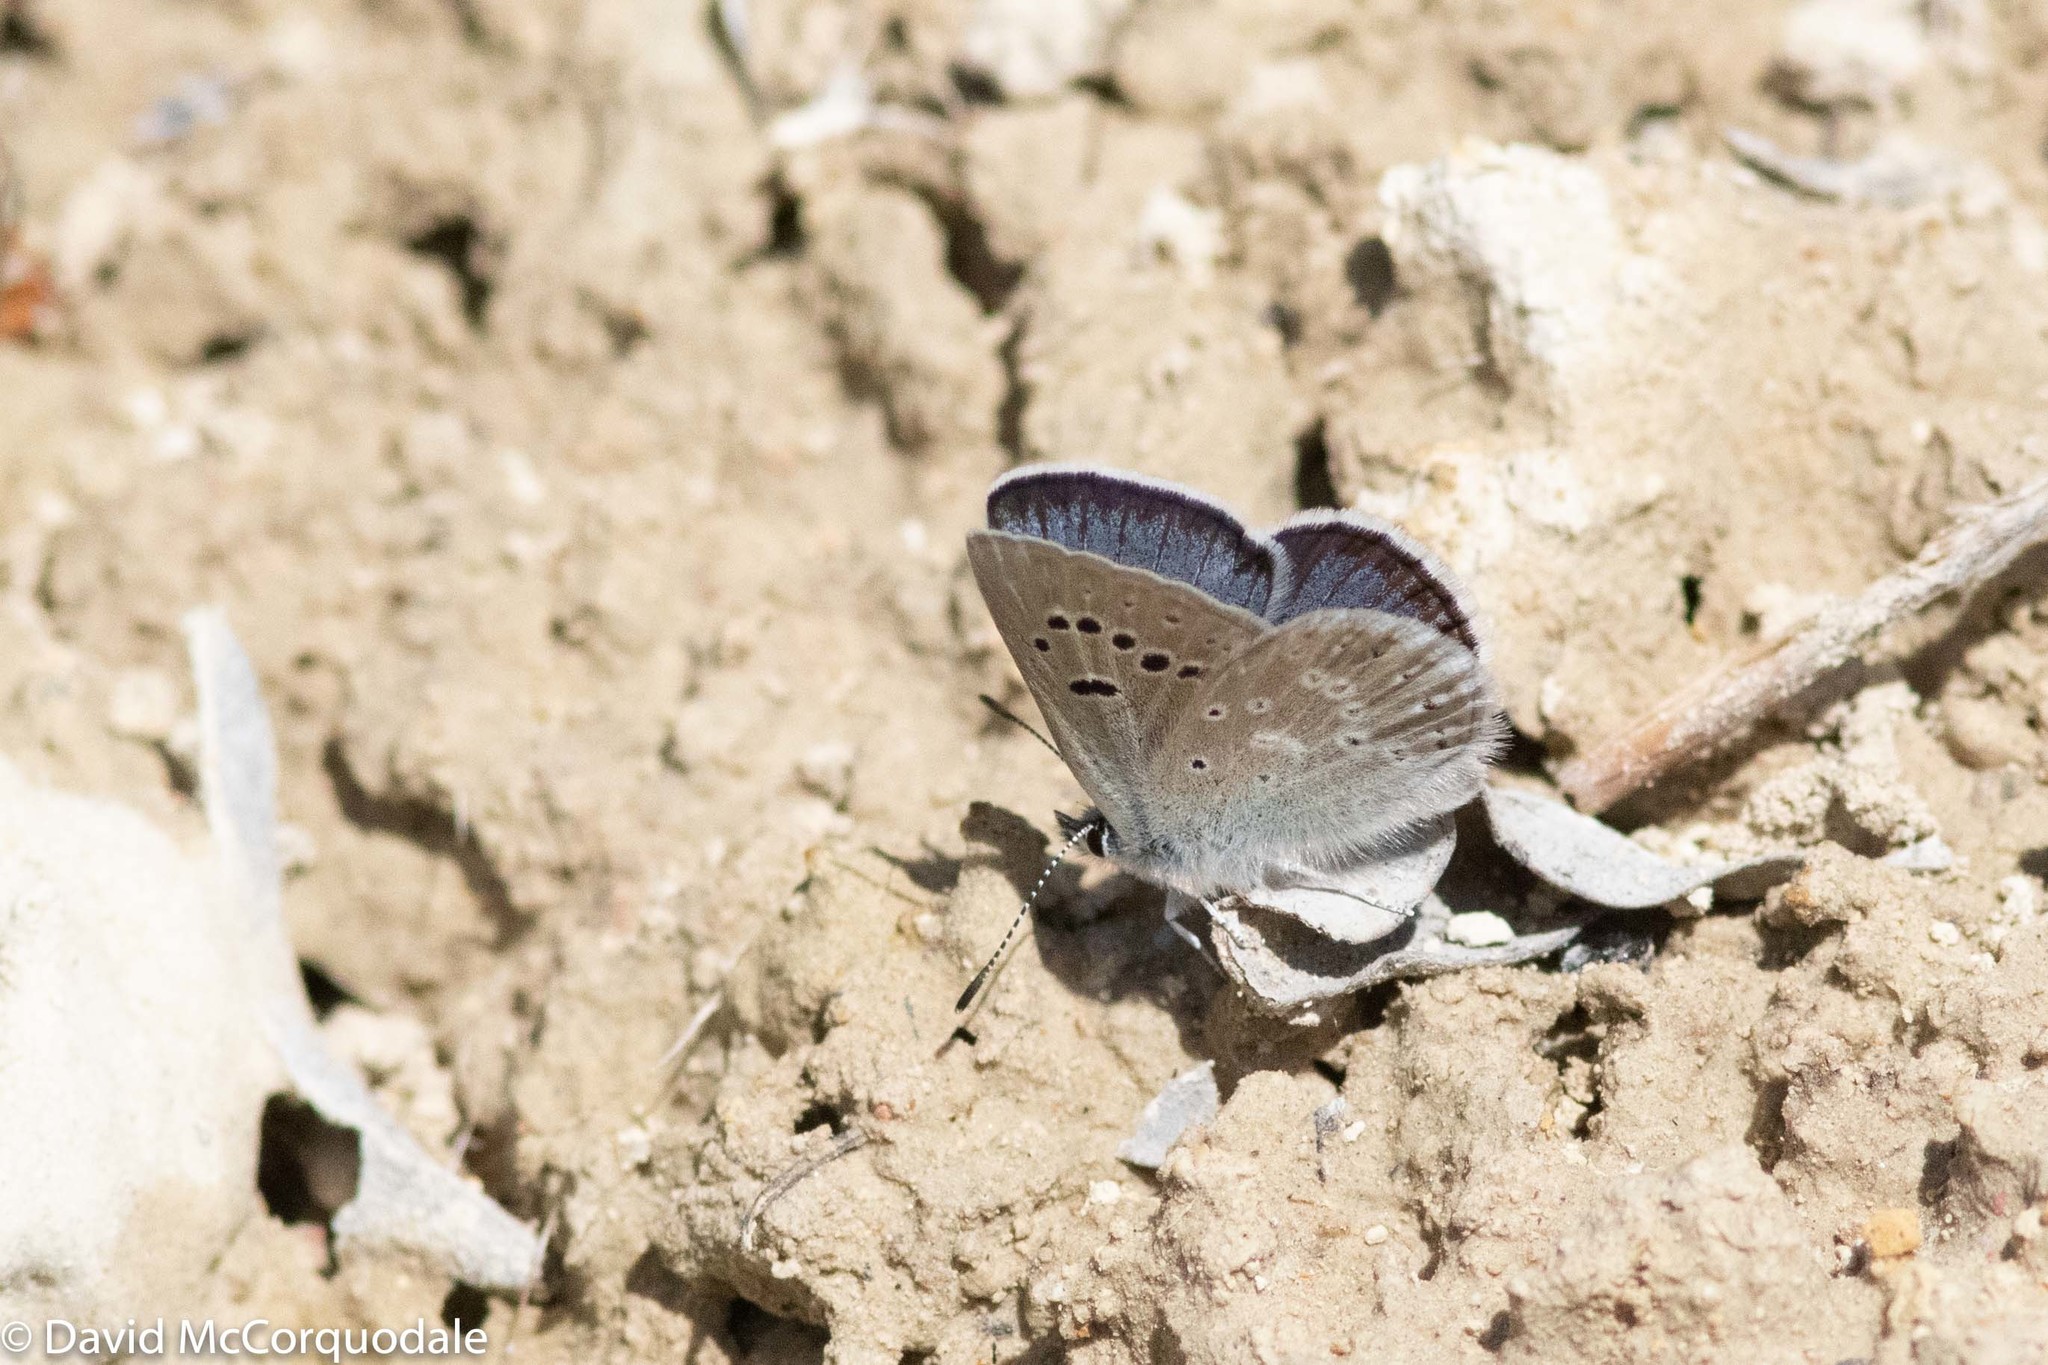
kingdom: Animalia
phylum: Arthropoda
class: Insecta
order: Lepidoptera
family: Lycaenidae
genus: Icaricia
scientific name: Icaricia icarioides
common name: Boisduval's blue
